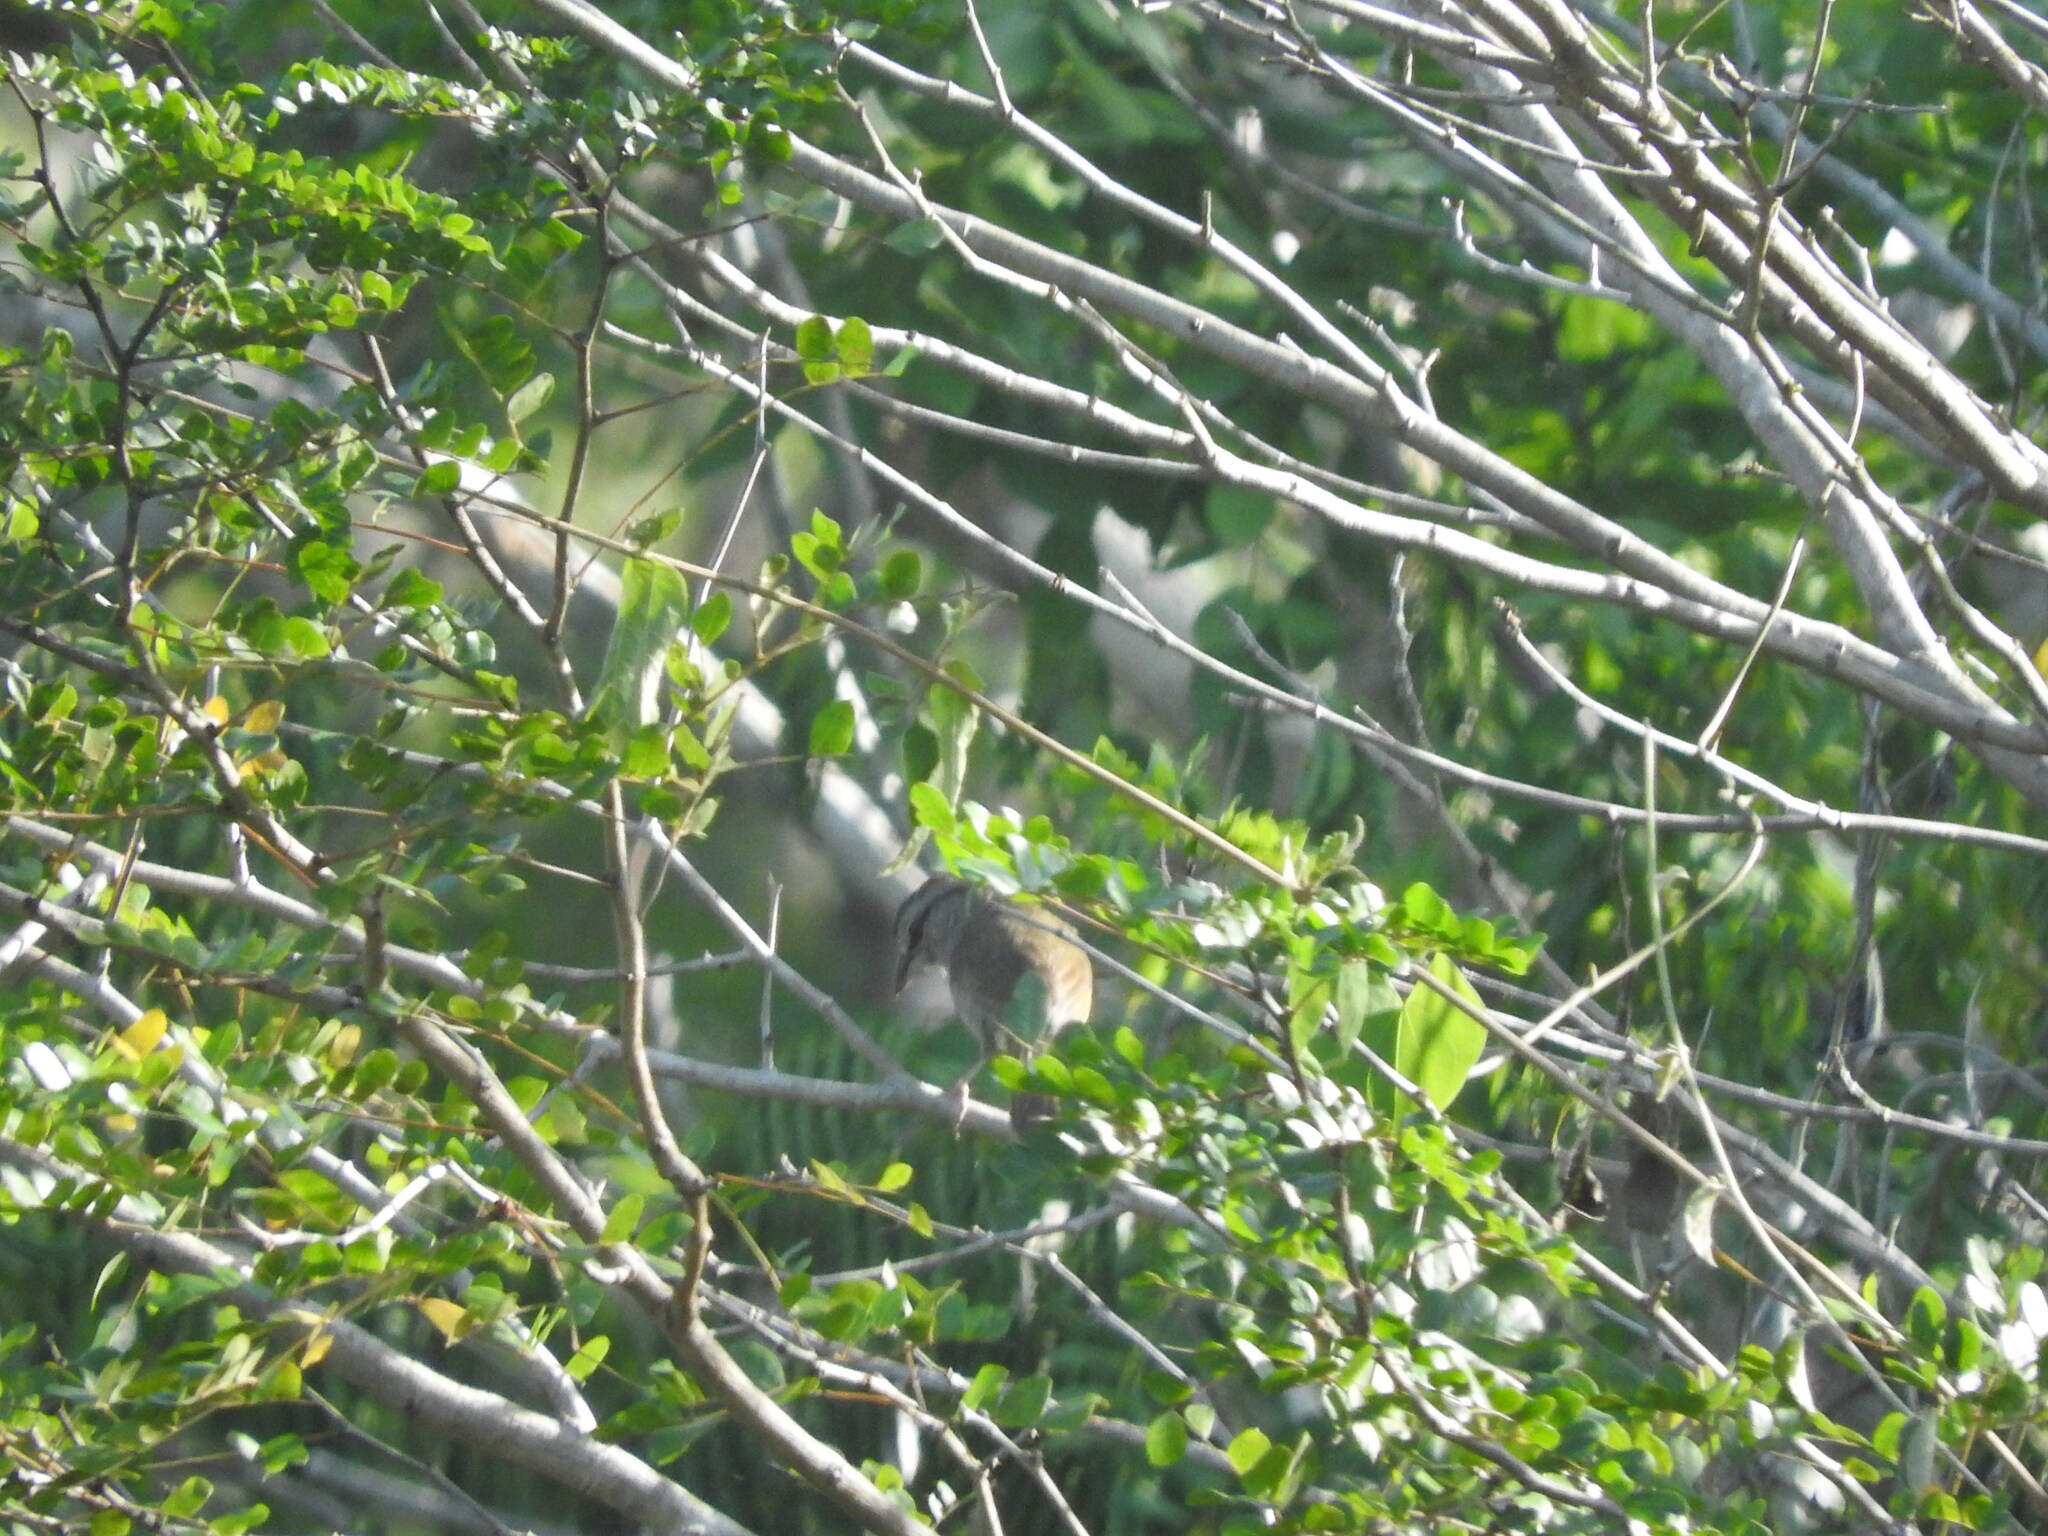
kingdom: Animalia
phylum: Chordata
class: Aves
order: Passeriformes
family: Passerellidae
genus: Arremonops
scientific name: Arremonops rufivirgatus
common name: Olive sparrow
